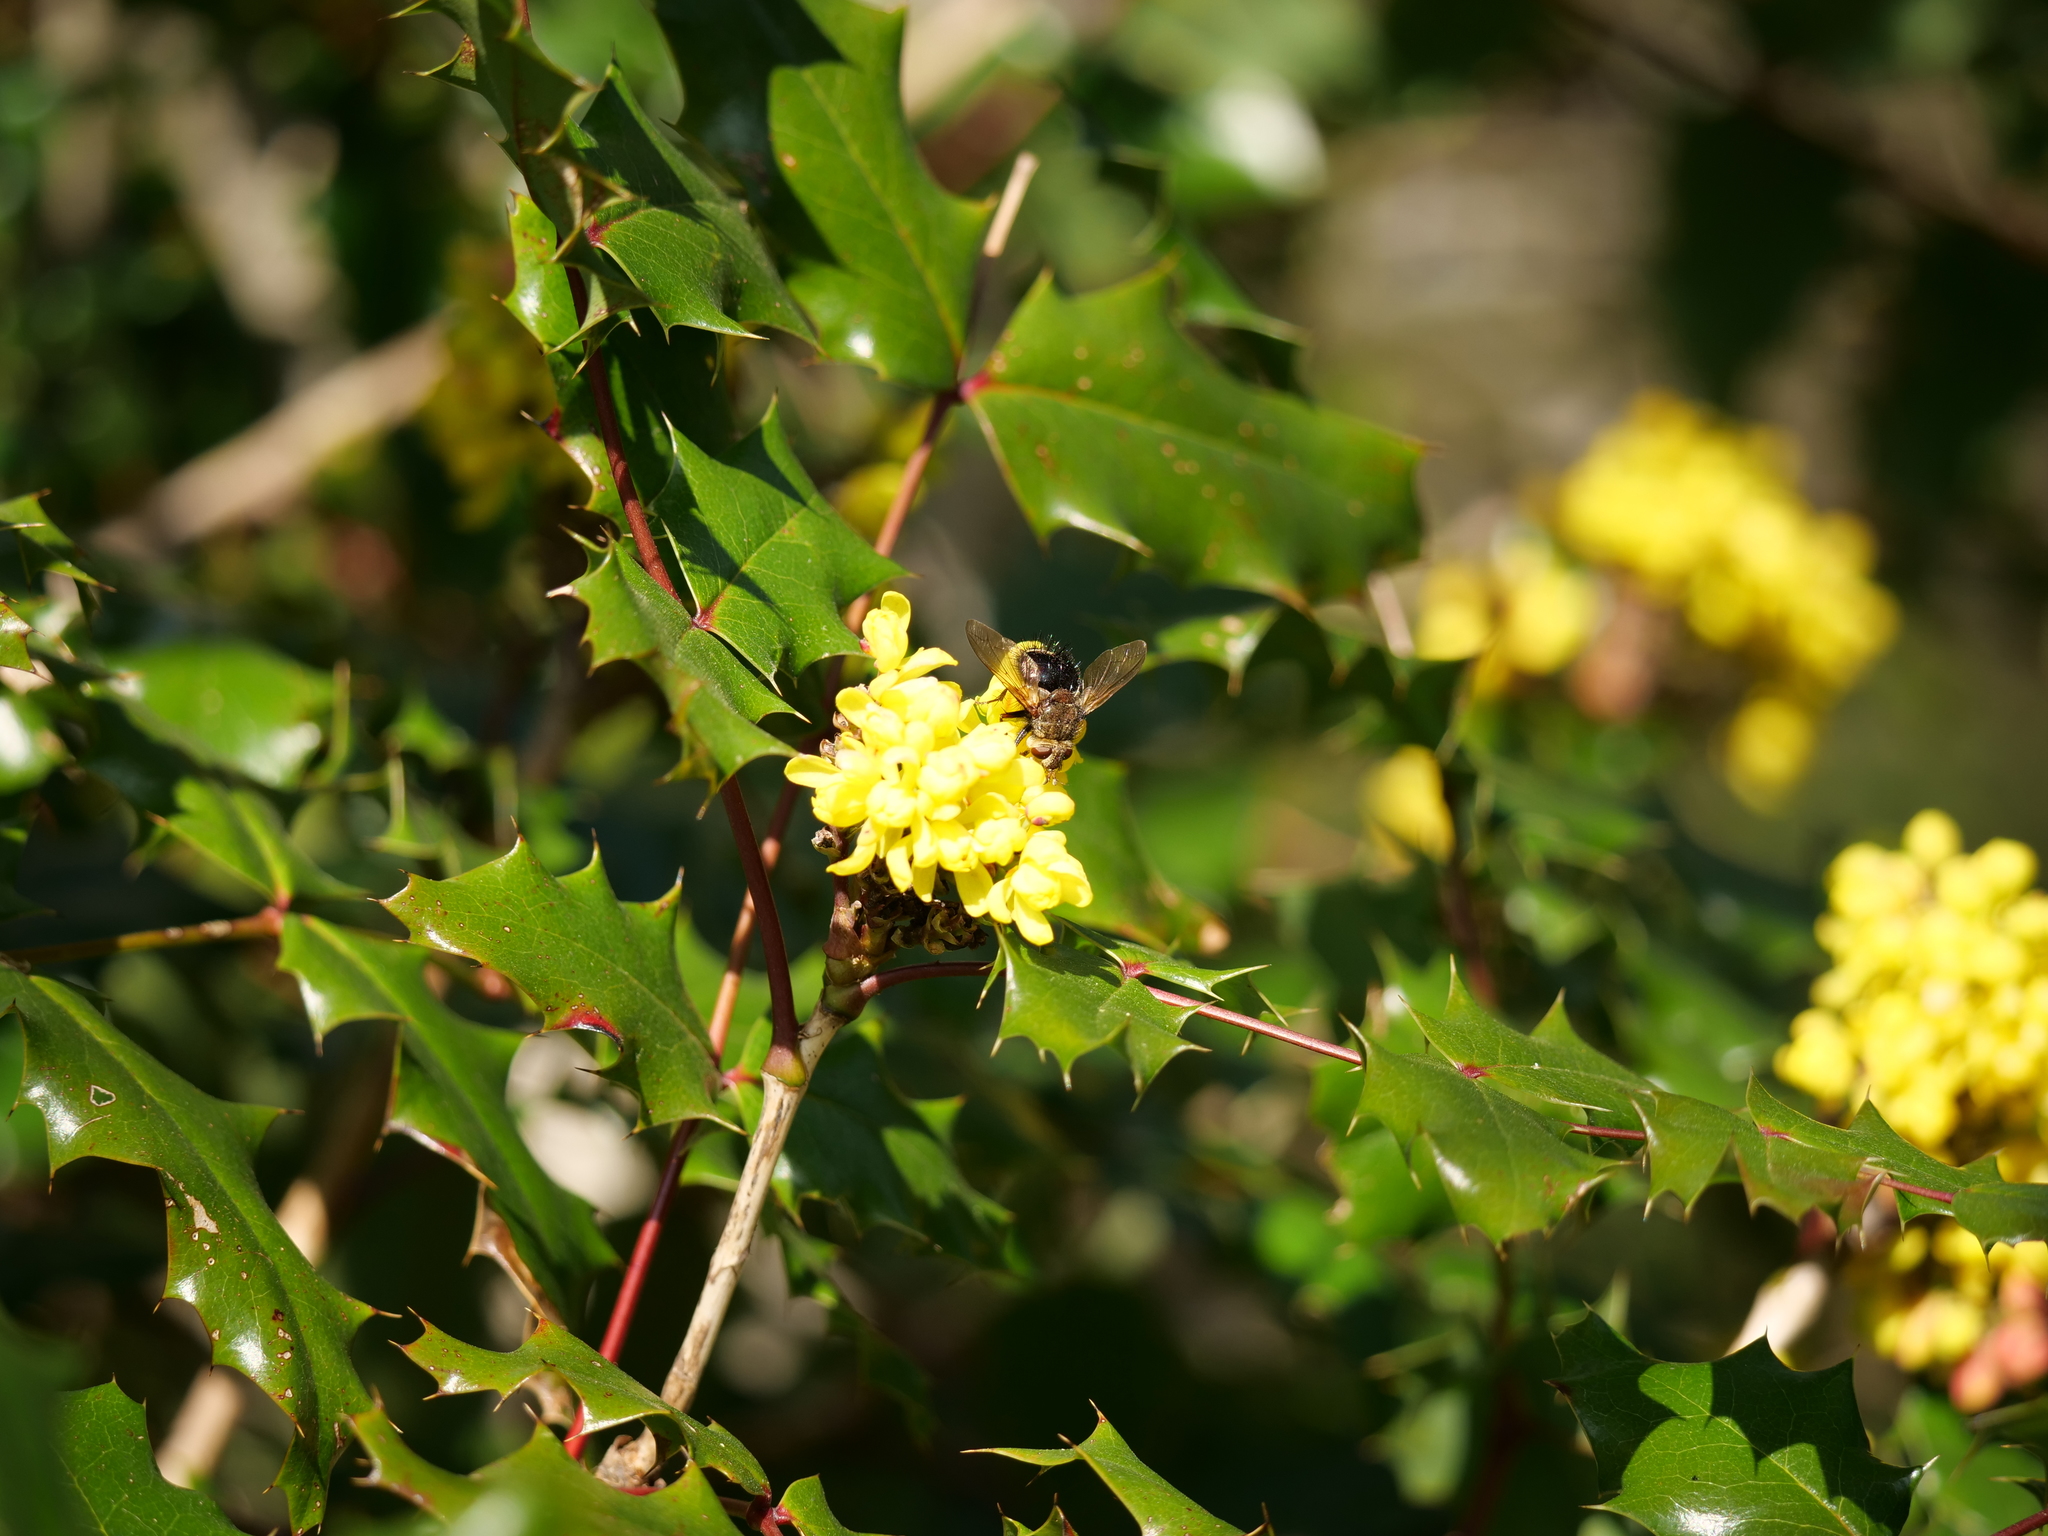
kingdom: Animalia
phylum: Arthropoda
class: Insecta
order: Diptera
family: Tachinidae
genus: Epalpus
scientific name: Epalpus signifer
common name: Early tachinid fly
